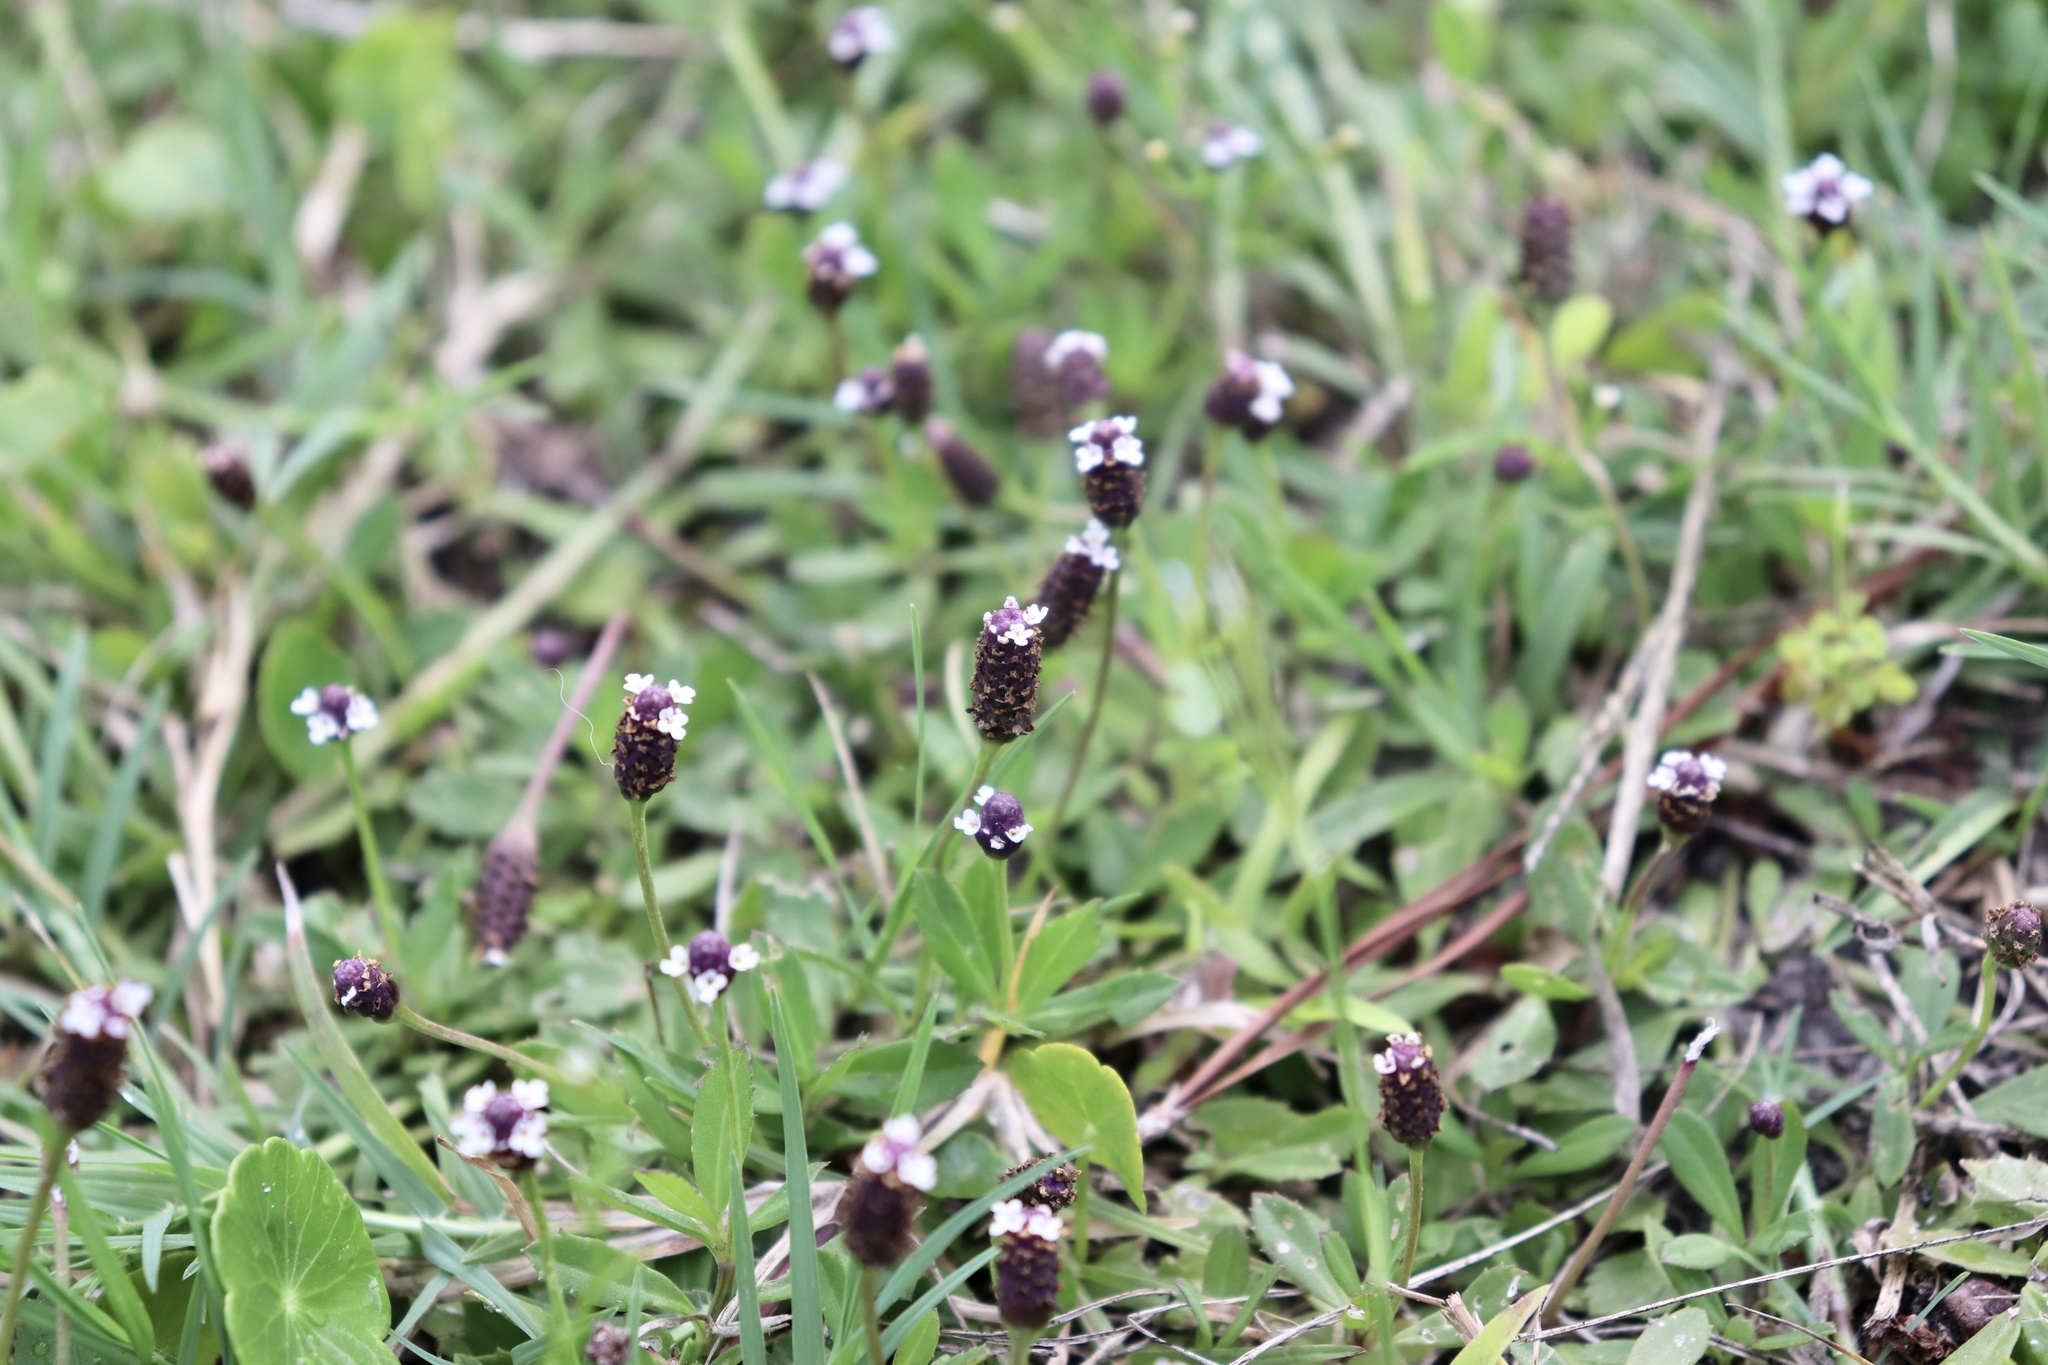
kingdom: Plantae
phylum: Tracheophyta
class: Magnoliopsida
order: Lamiales
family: Verbenaceae
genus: Phyla
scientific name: Phyla nodiflora
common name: Frogfruit
